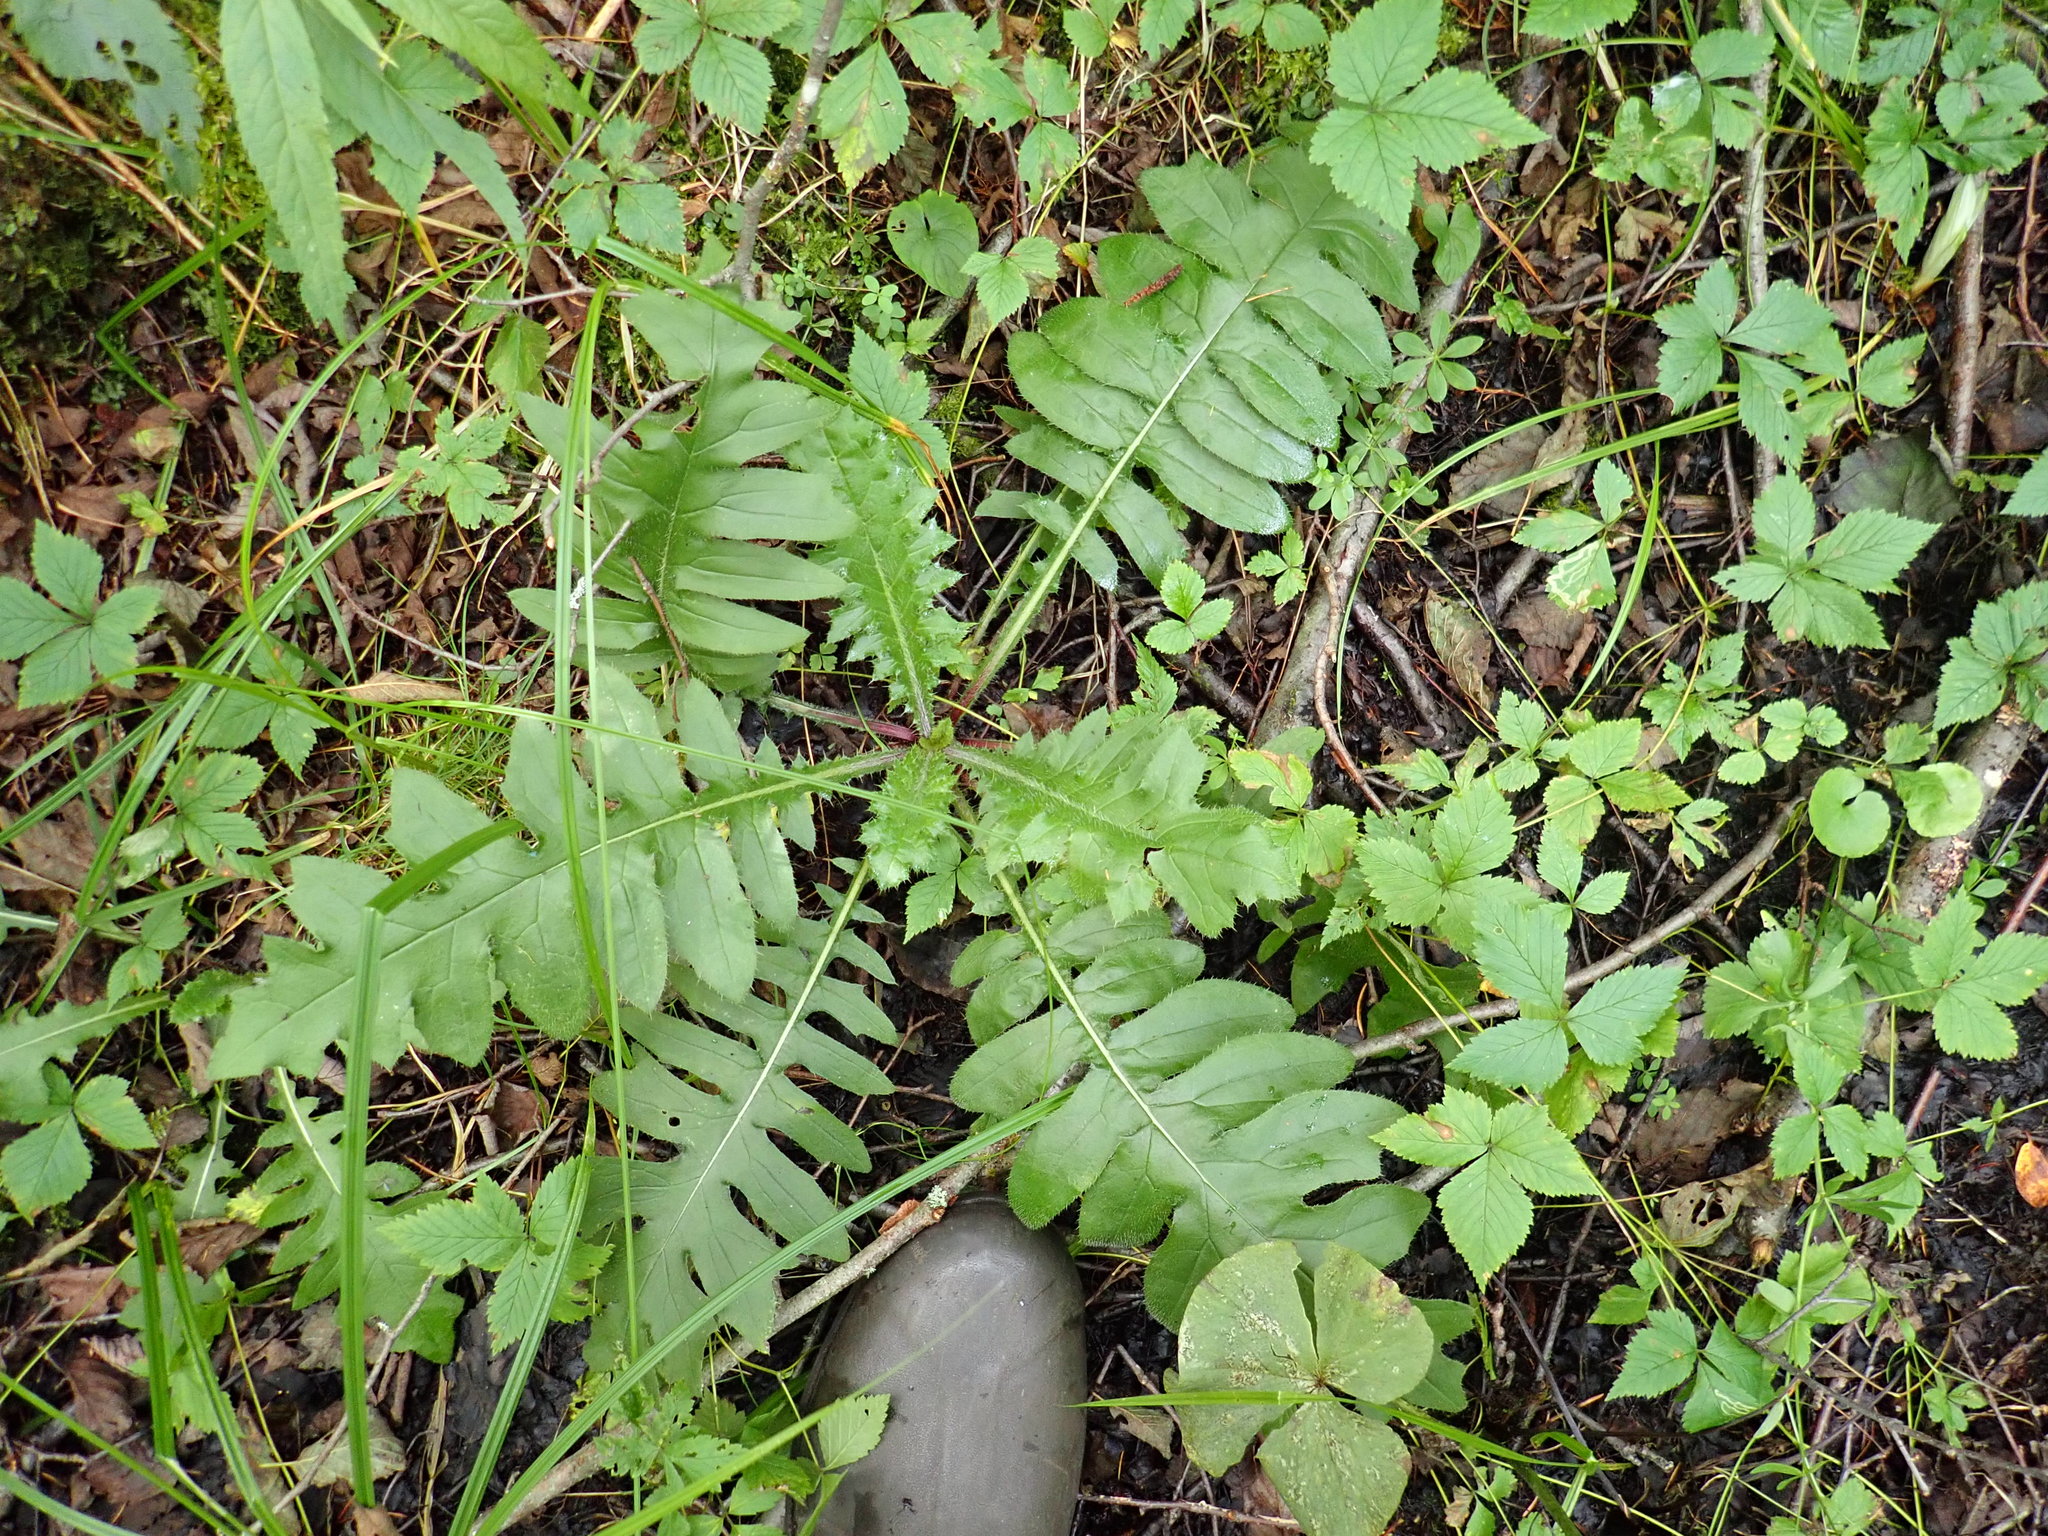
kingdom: Plantae
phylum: Tracheophyta
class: Magnoliopsida
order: Asterales
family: Asteraceae
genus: Cirsium
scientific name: Cirsium muticum
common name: Dunce-nettle
